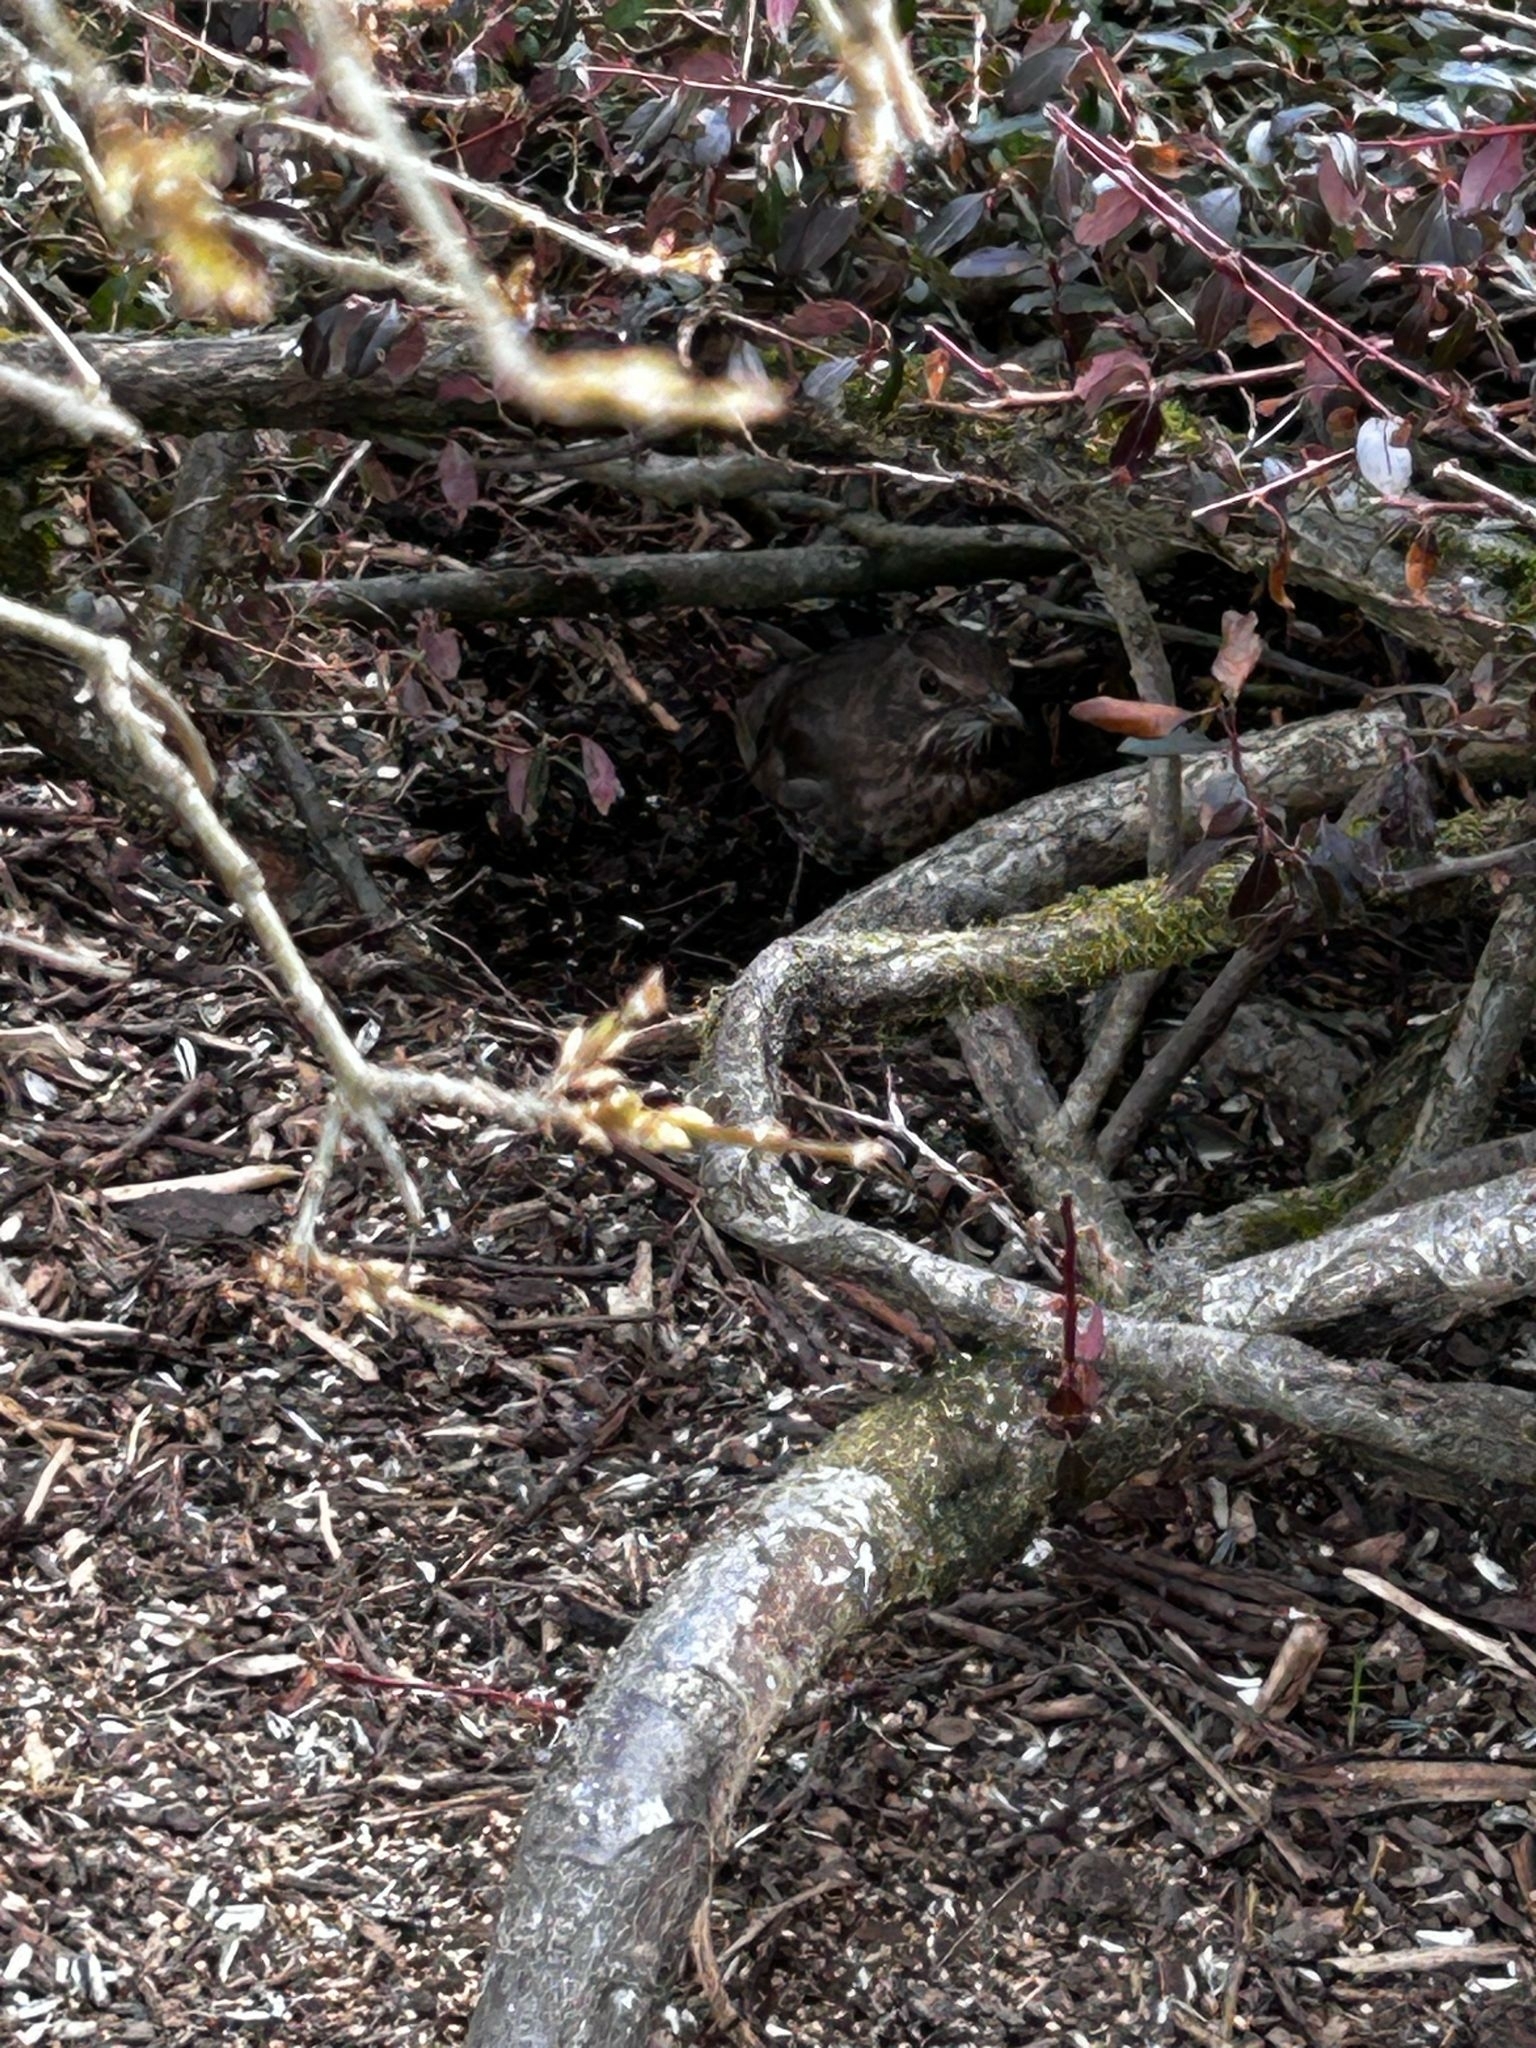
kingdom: Animalia
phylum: Chordata
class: Aves
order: Passeriformes
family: Turdidae
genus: Turdus
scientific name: Turdus merula
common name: Common blackbird
